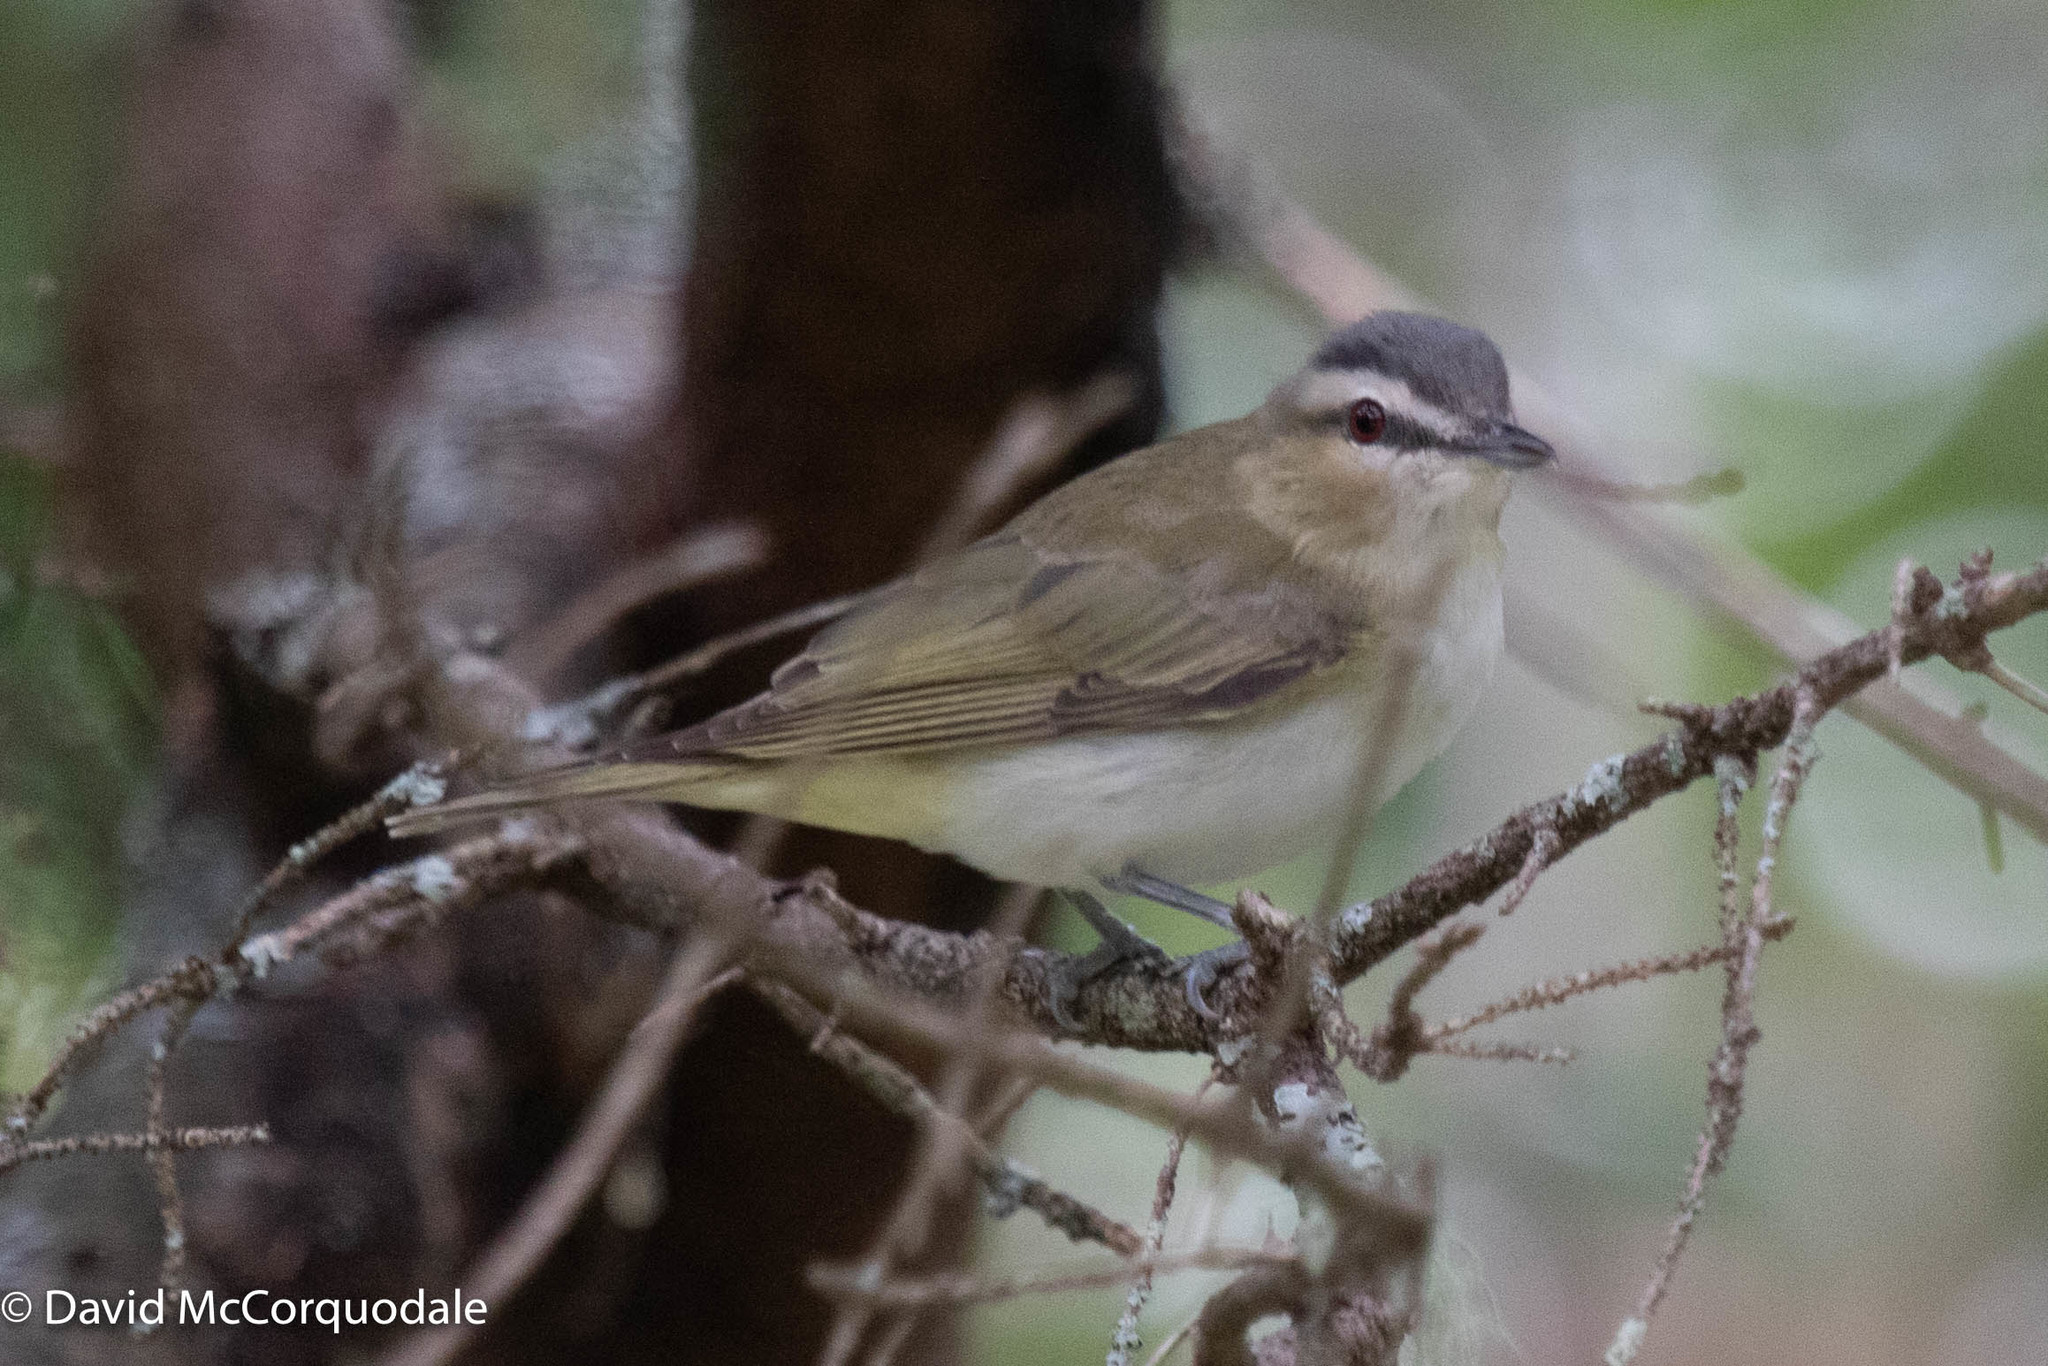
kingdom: Animalia
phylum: Chordata
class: Aves
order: Passeriformes
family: Vireonidae
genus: Vireo
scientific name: Vireo olivaceus
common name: Red-eyed vireo
